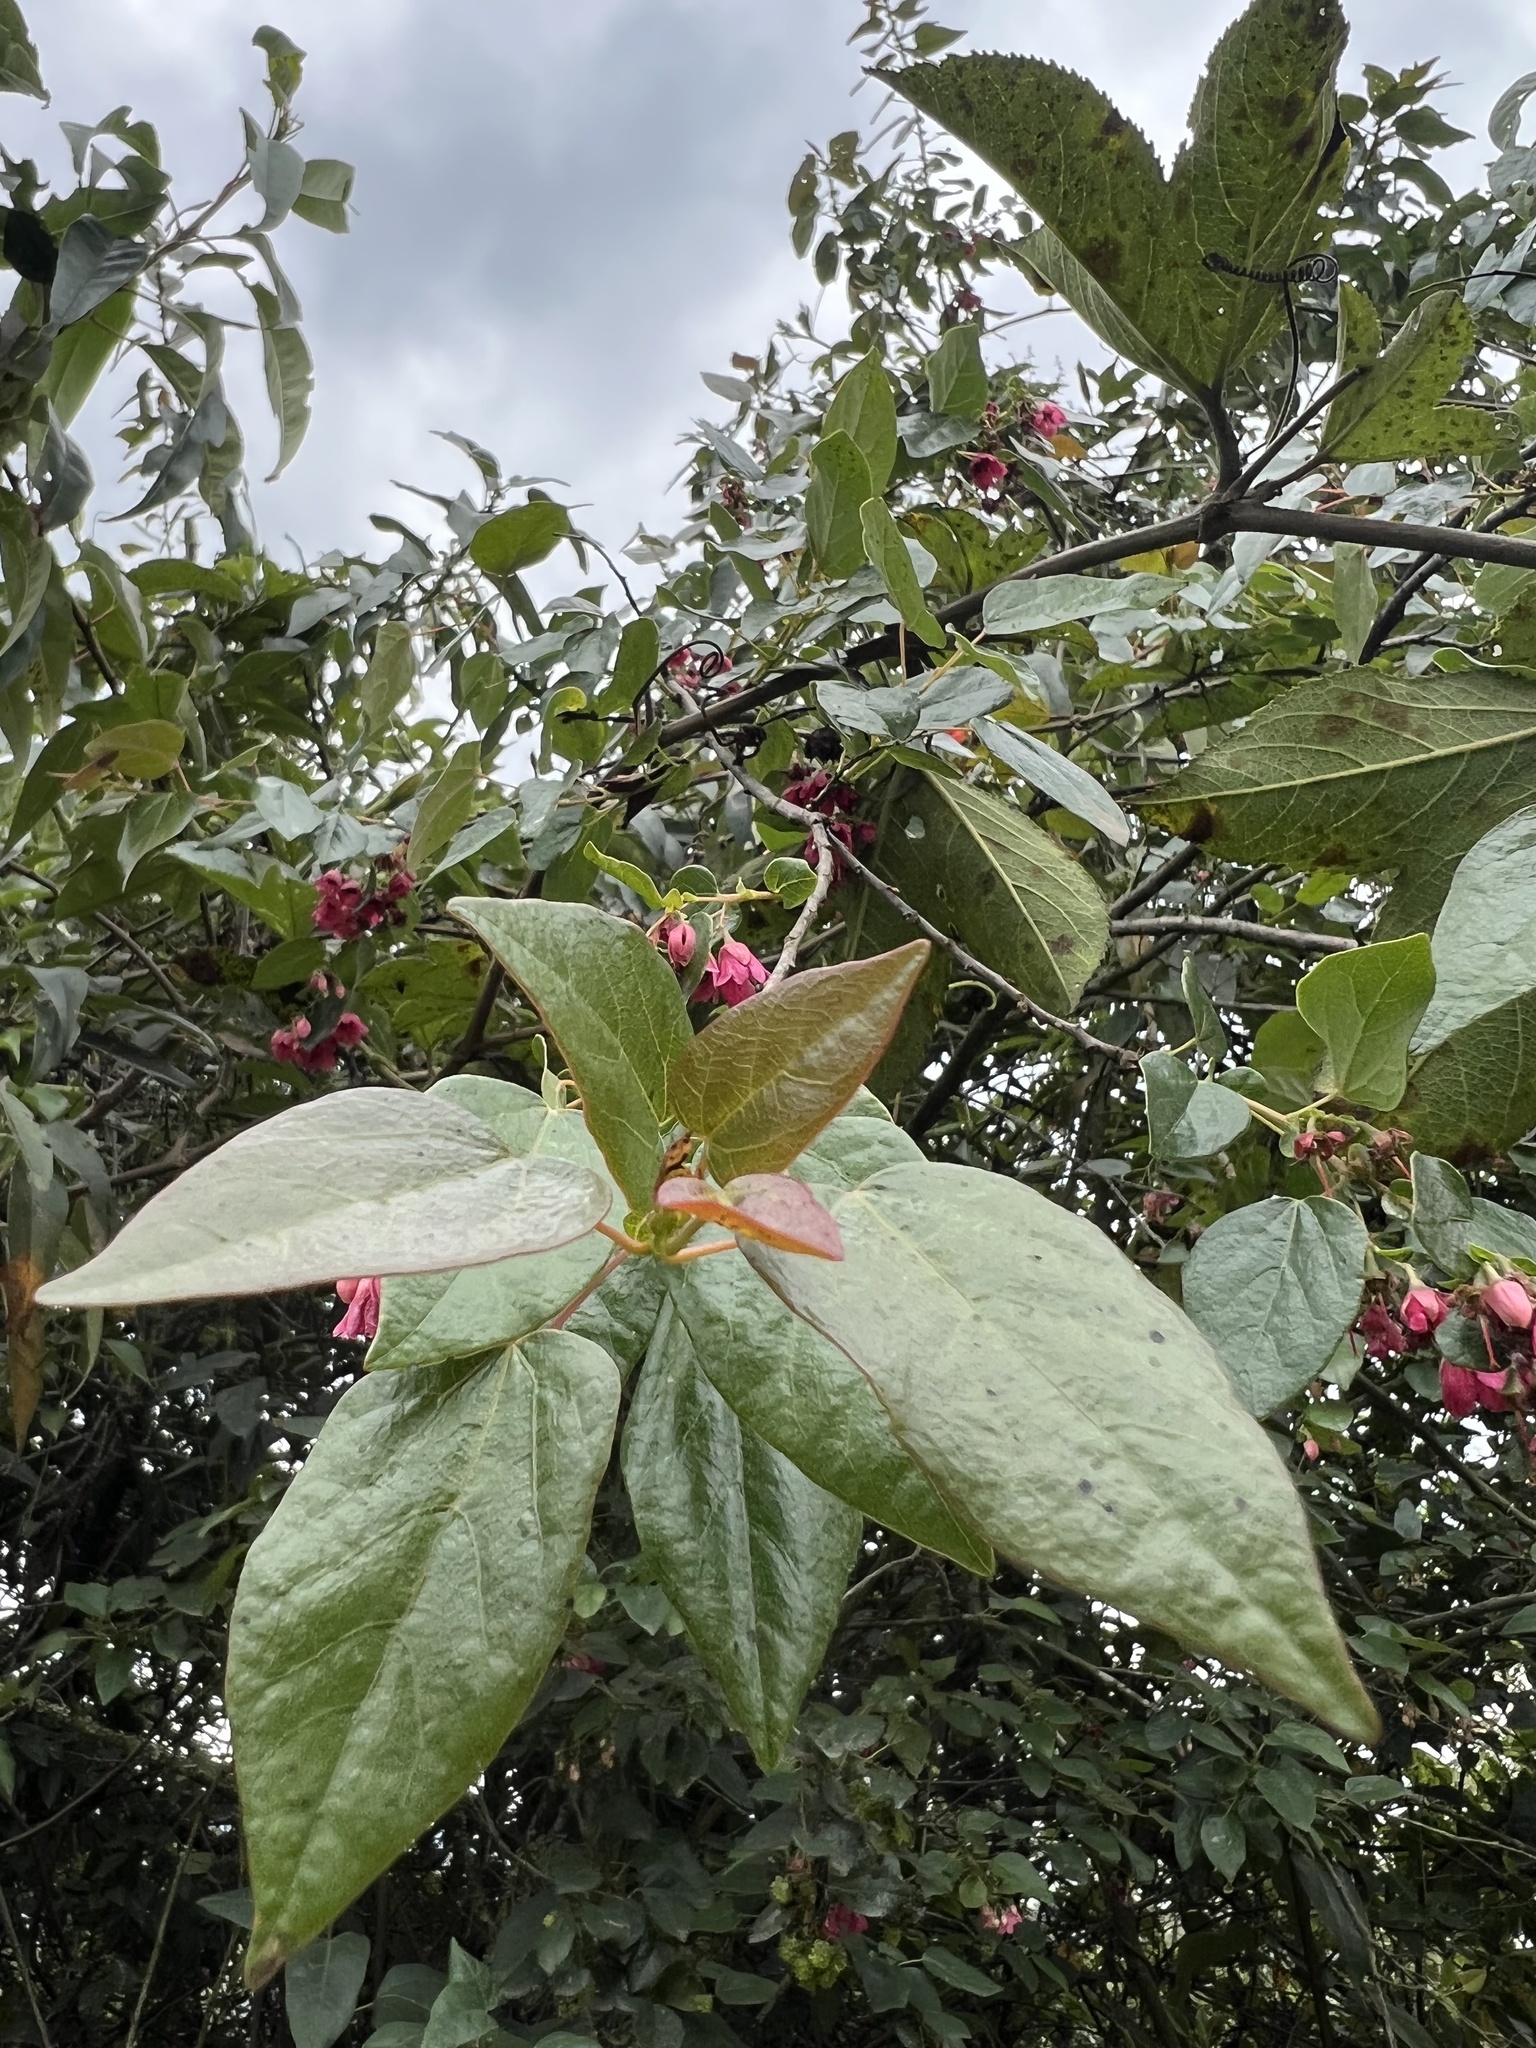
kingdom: Plantae
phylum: Tracheophyta
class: Magnoliopsida
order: Oxalidales
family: Elaeocarpaceae
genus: Vallea
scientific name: Vallea stipularis
